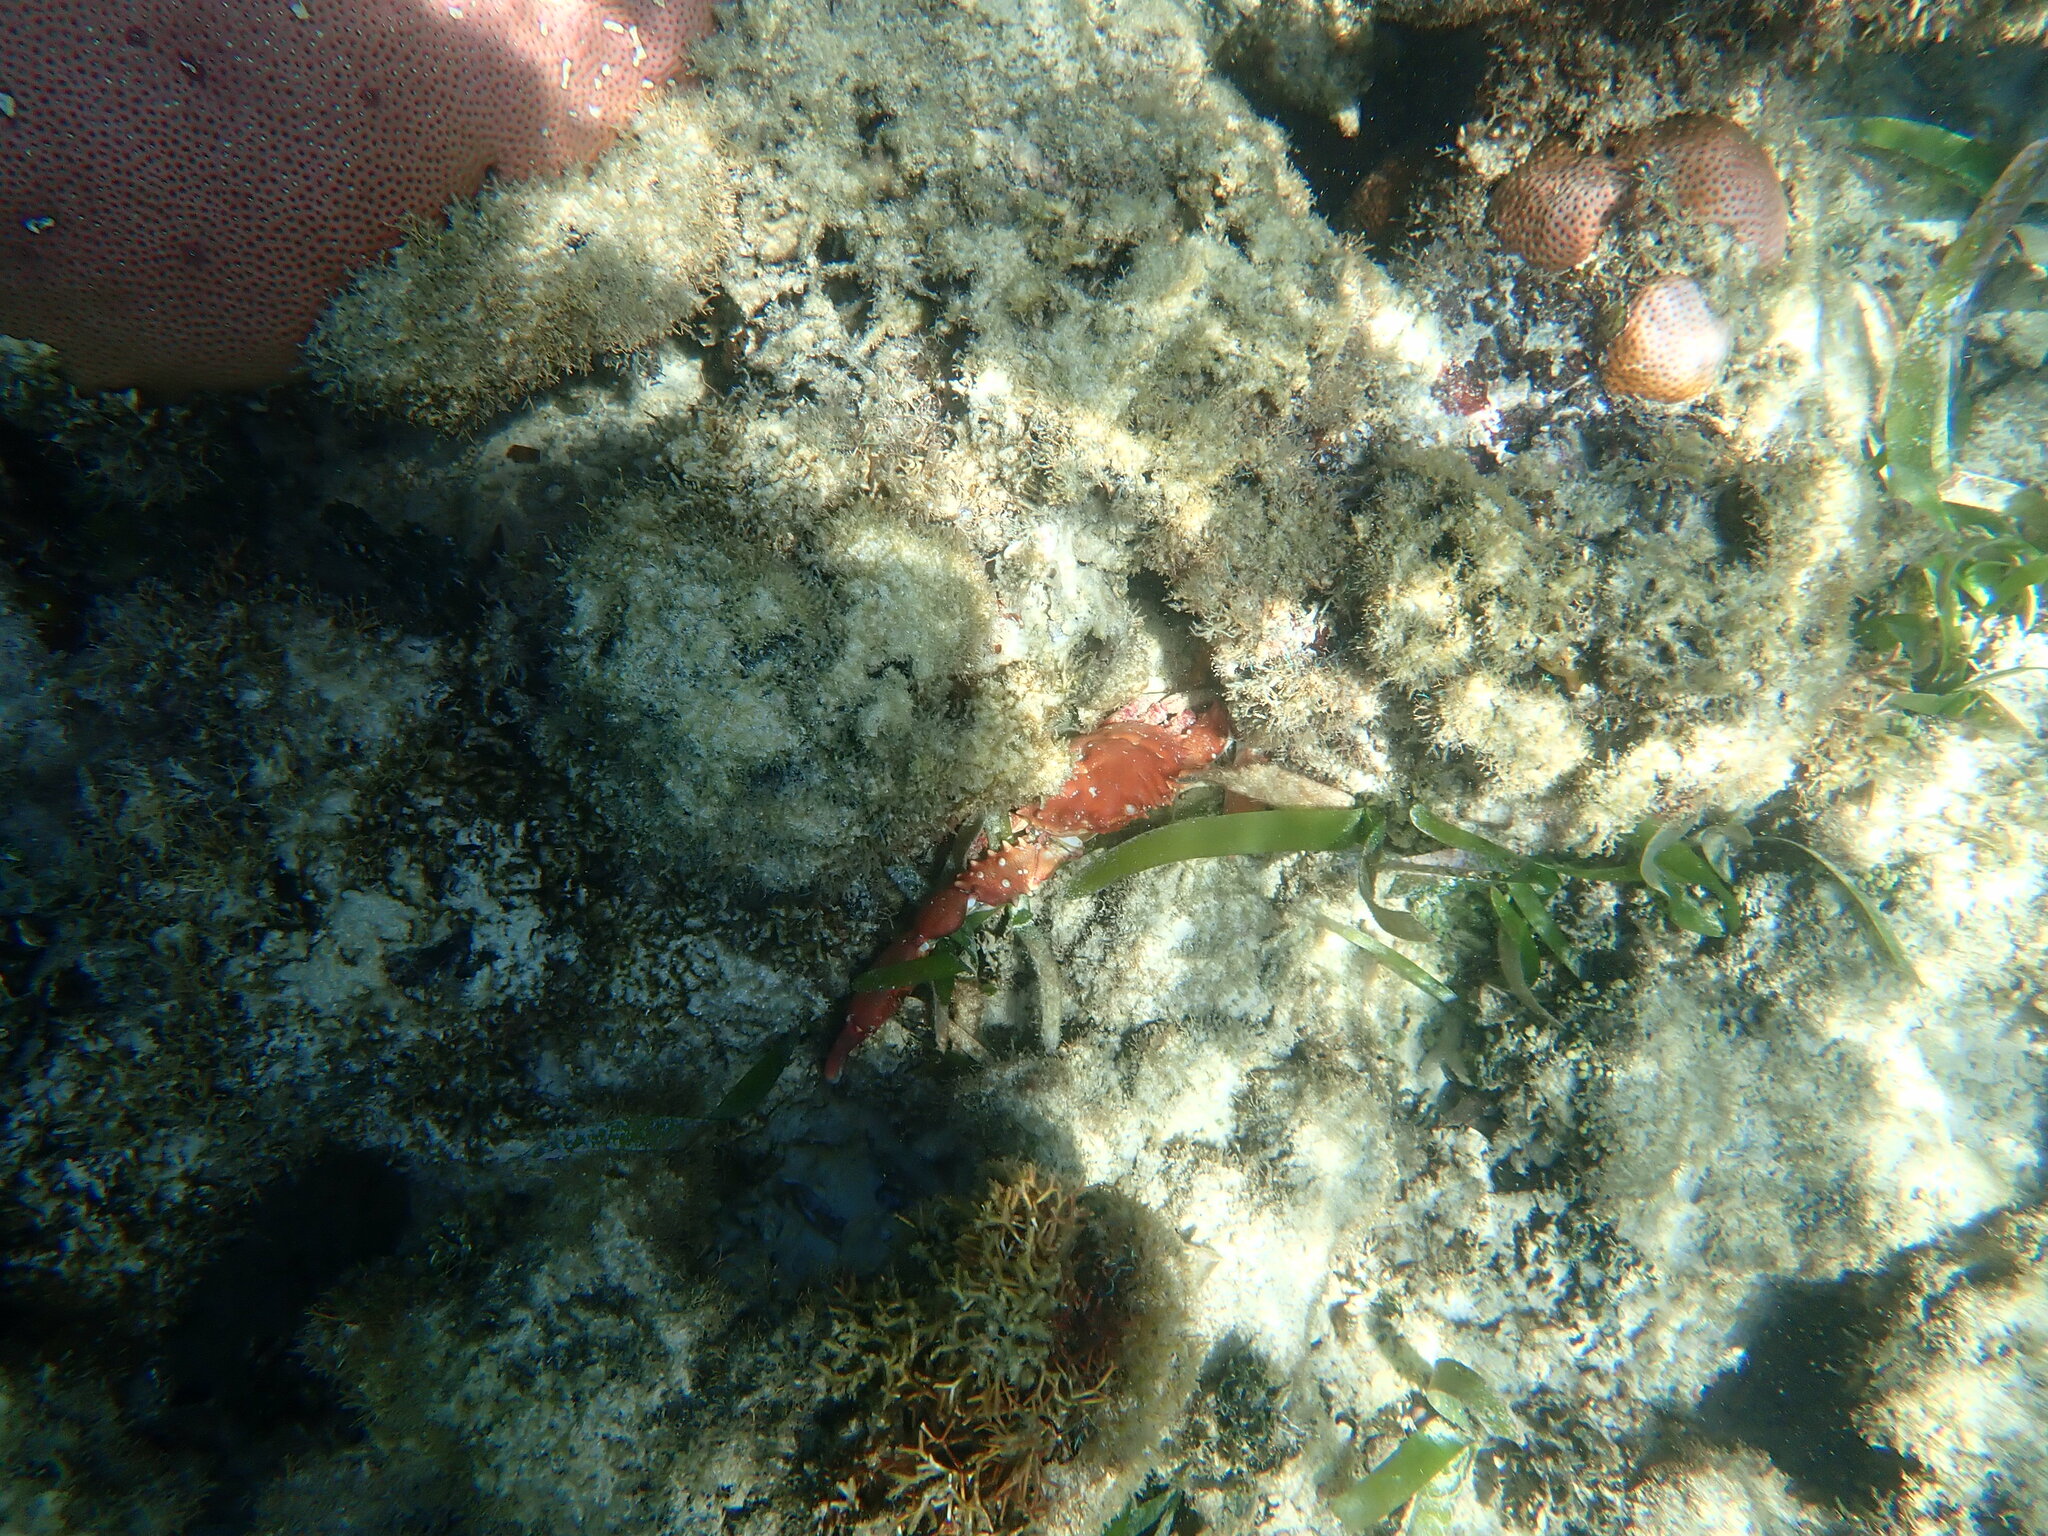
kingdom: Animalia
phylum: Arthropoda
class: Malacostraca
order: Decapoda
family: Mithracidae
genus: Mithrax
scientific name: Mithrax hispidus
